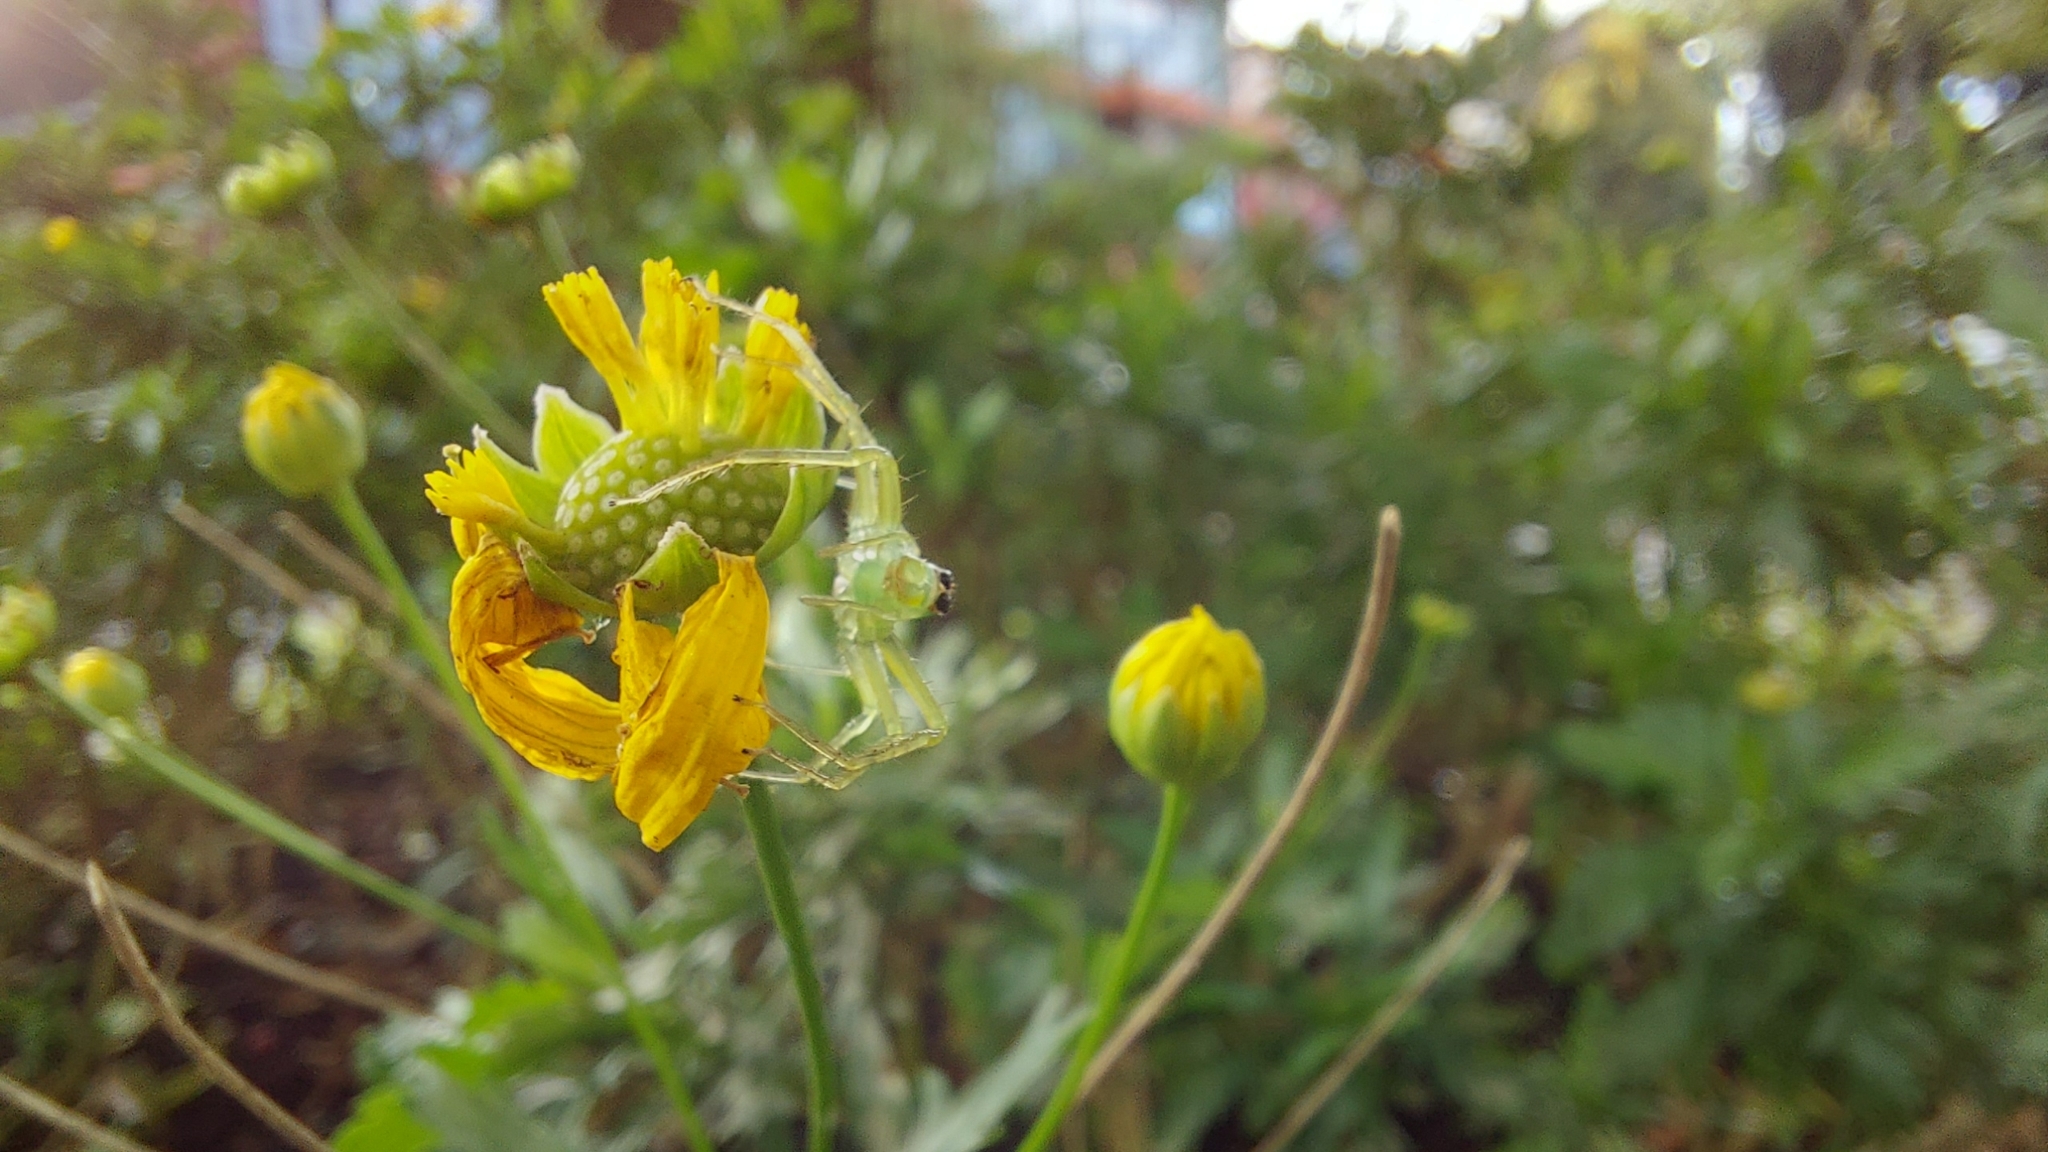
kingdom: Animalia
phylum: Arthropoda
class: Arachnida
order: Araneae
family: Salticidae
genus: Lyssomanes
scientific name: Lyssomanes viridis
